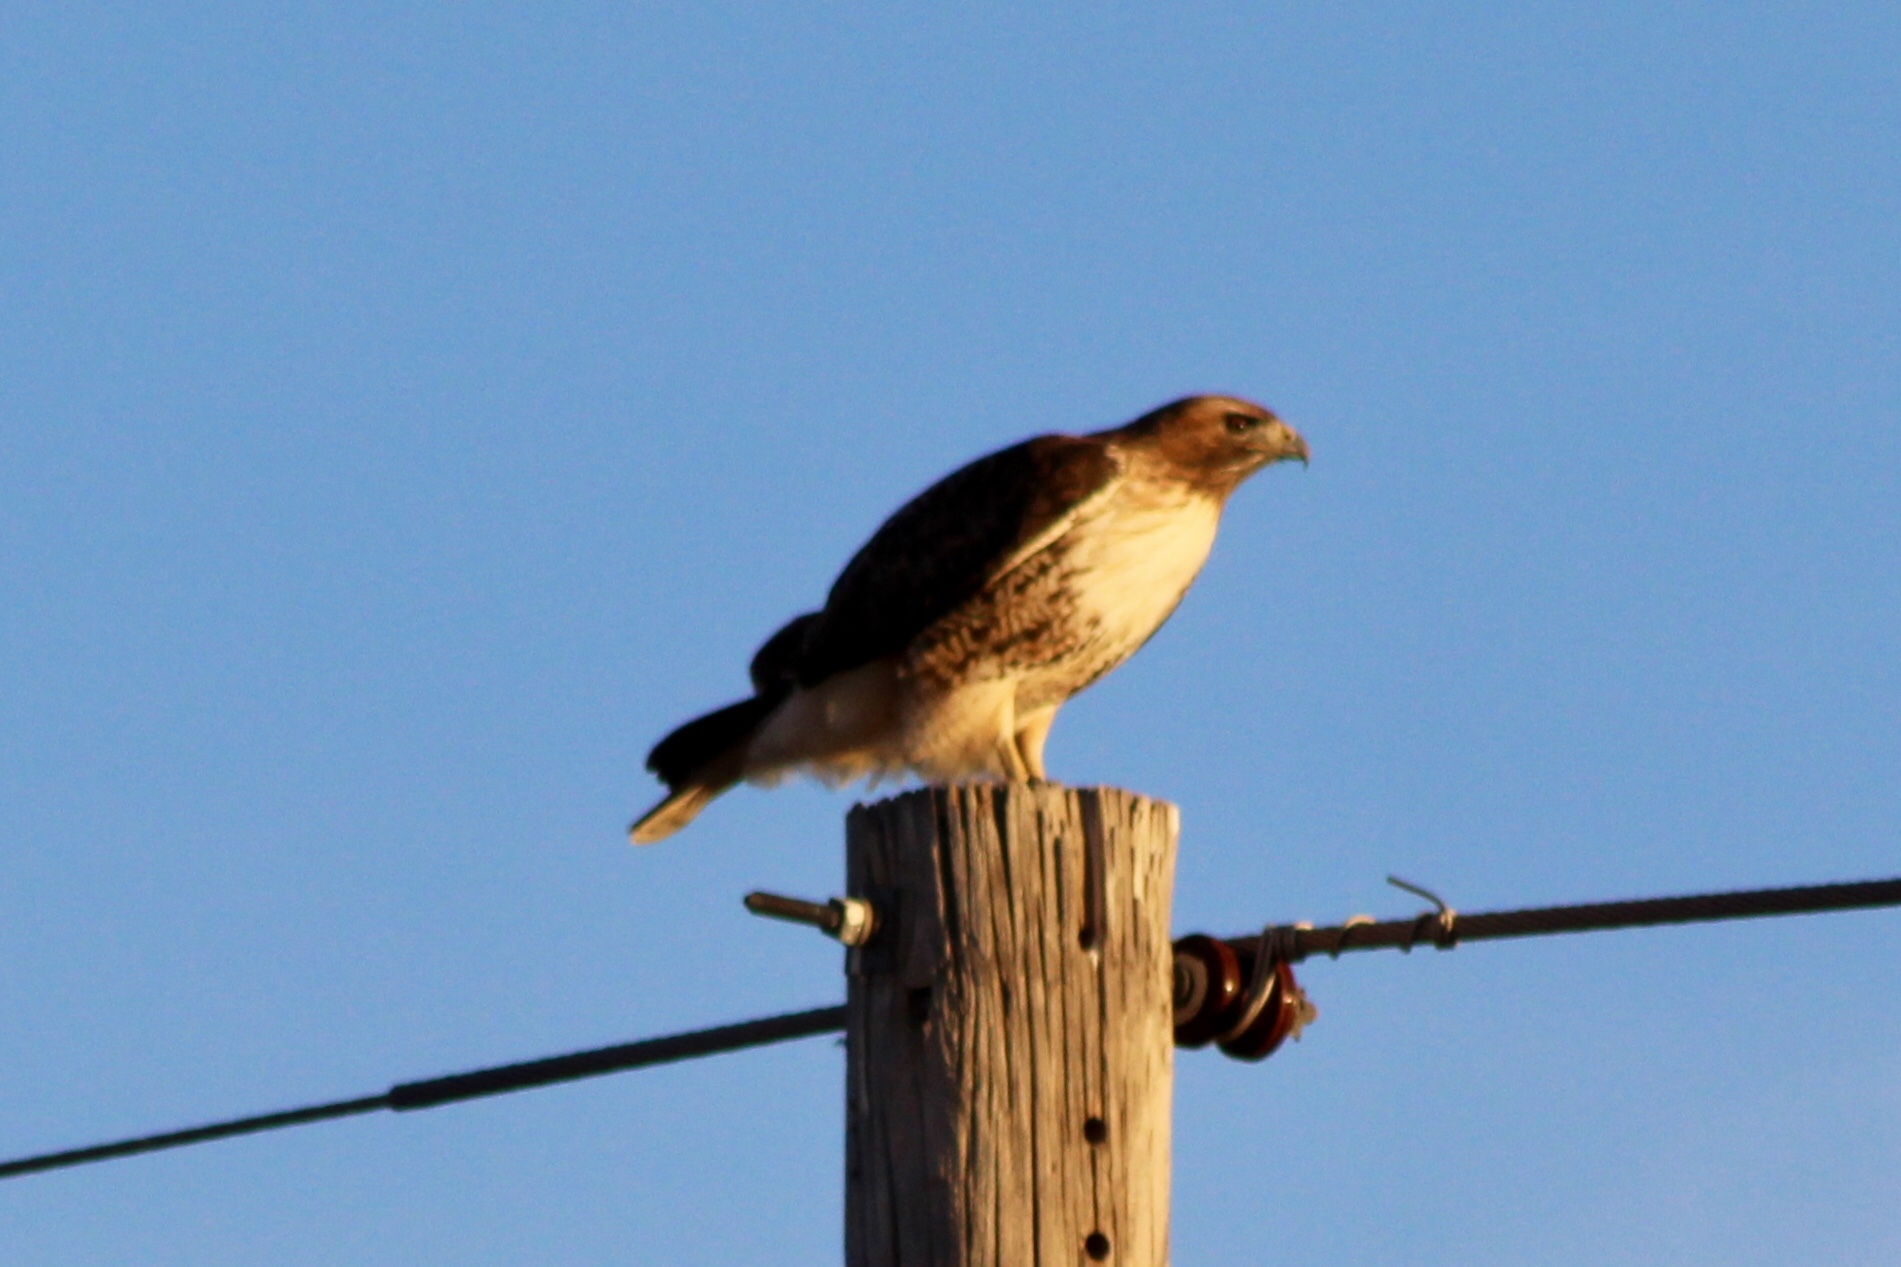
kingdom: Animalia
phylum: Chordata
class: Aves
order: Accipitriformes
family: Accipitridae
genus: Buteo
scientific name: Buteo jamaicensis
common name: Red-tailed hawk
